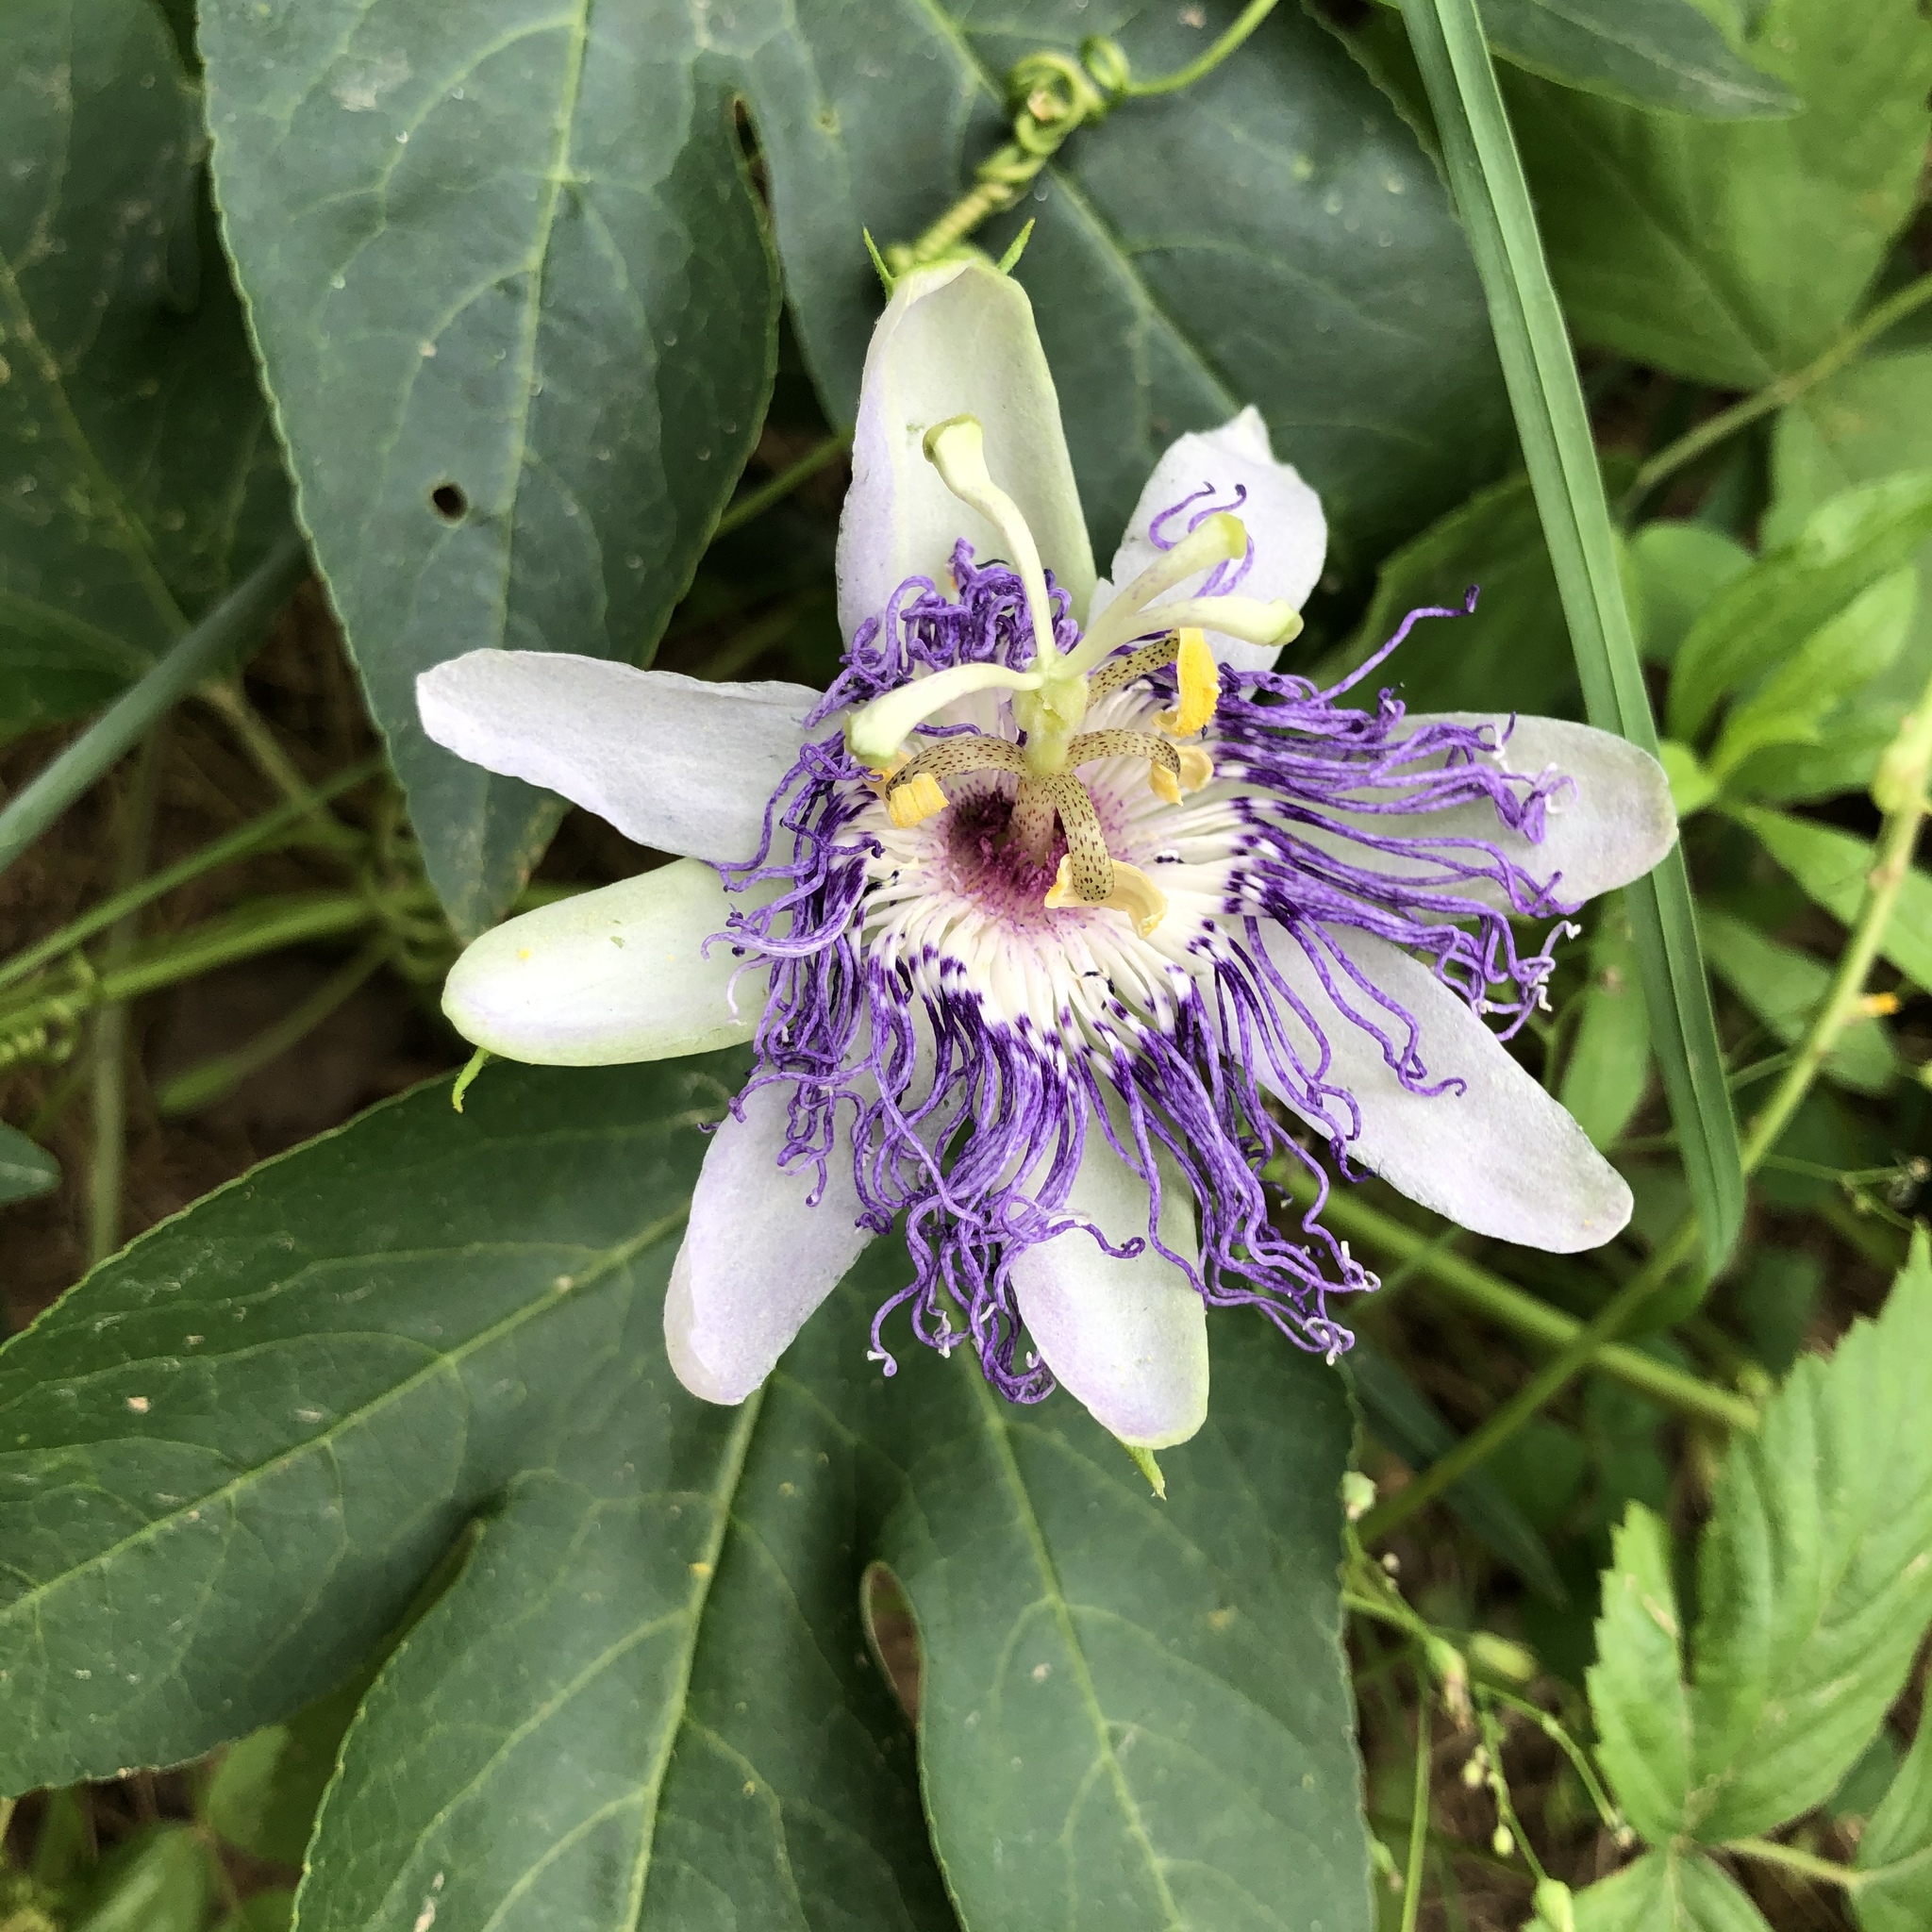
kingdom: Plantae
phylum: Tracheophyta
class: Magnoliopsida
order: Malpighiales
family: Passifloraceae
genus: Passiflora
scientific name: Passiflora incarnata
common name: Apricot-vine
